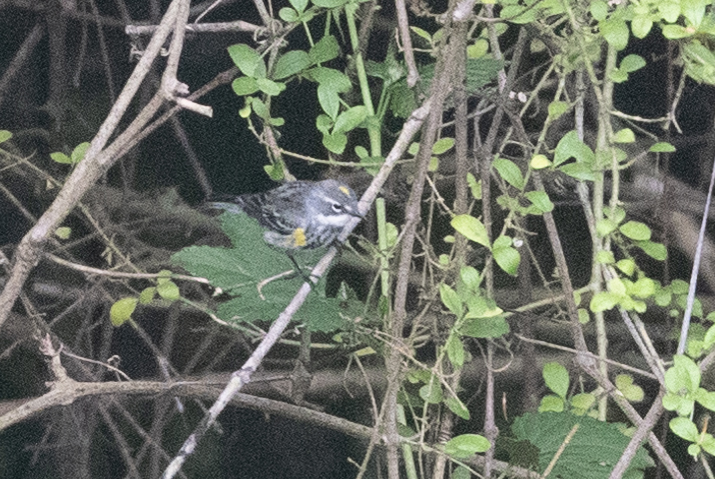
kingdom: Animalia
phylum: Chordata
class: Aves
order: Passeriformes
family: Parulidae
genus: Setophaga
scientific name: Setophaga coronata
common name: Myrtle warbler
